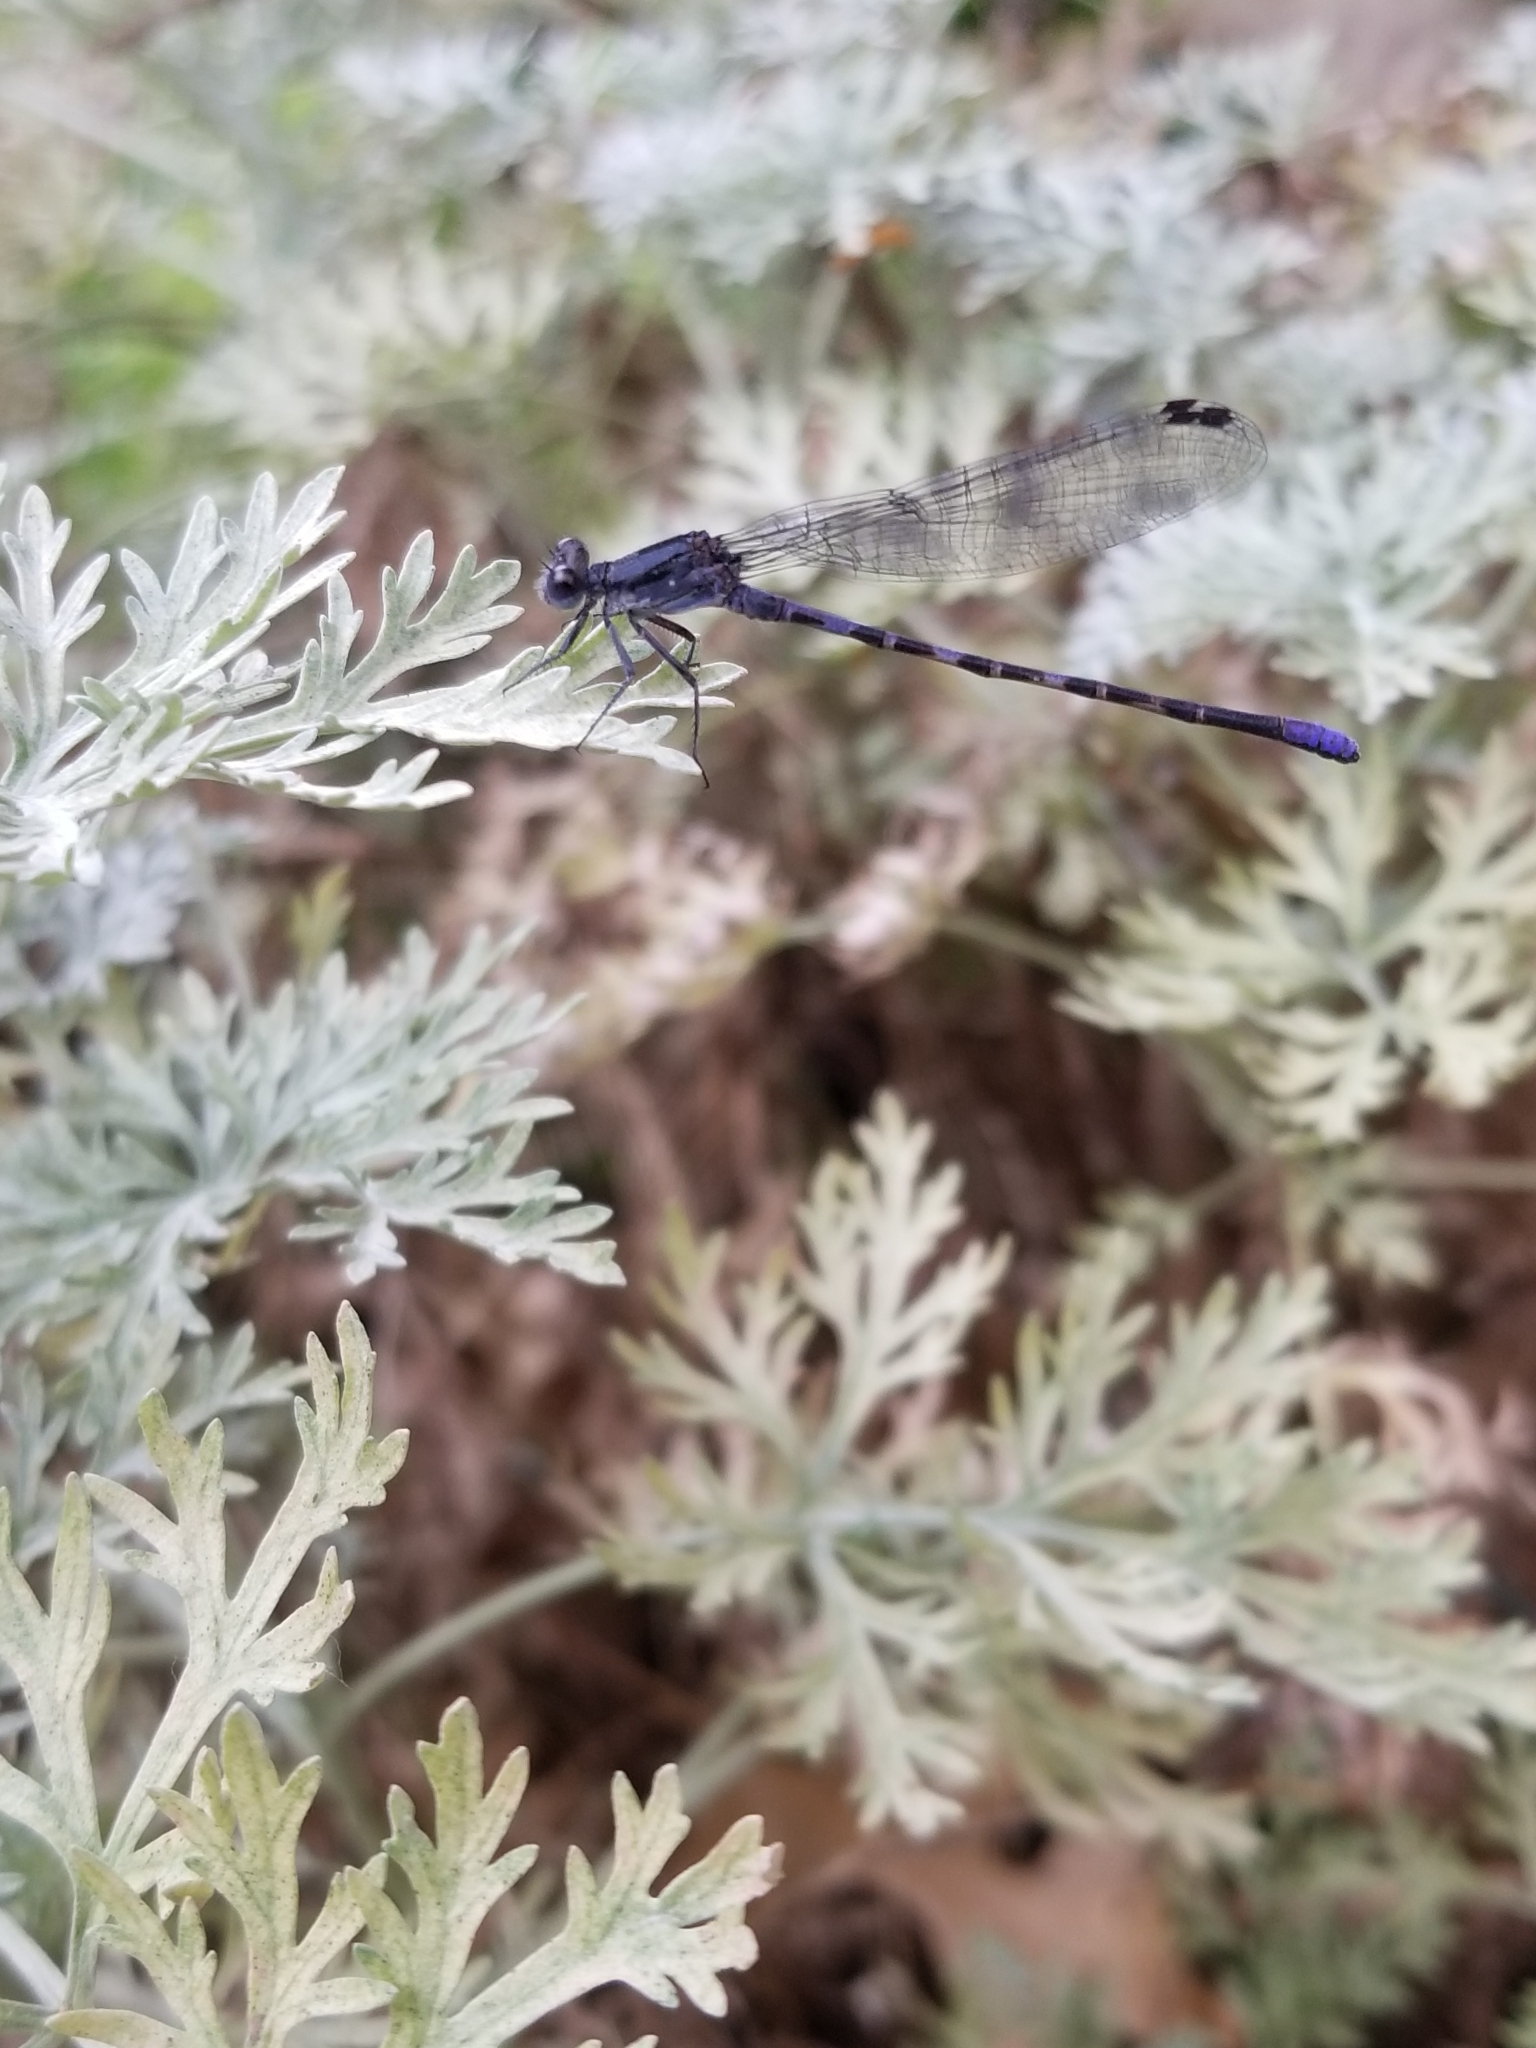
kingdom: Animalia
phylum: Arthropoda
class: Insecta
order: Odonata
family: Coenagrionidae
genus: Argia
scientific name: Argia translata
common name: Dusky dancer
